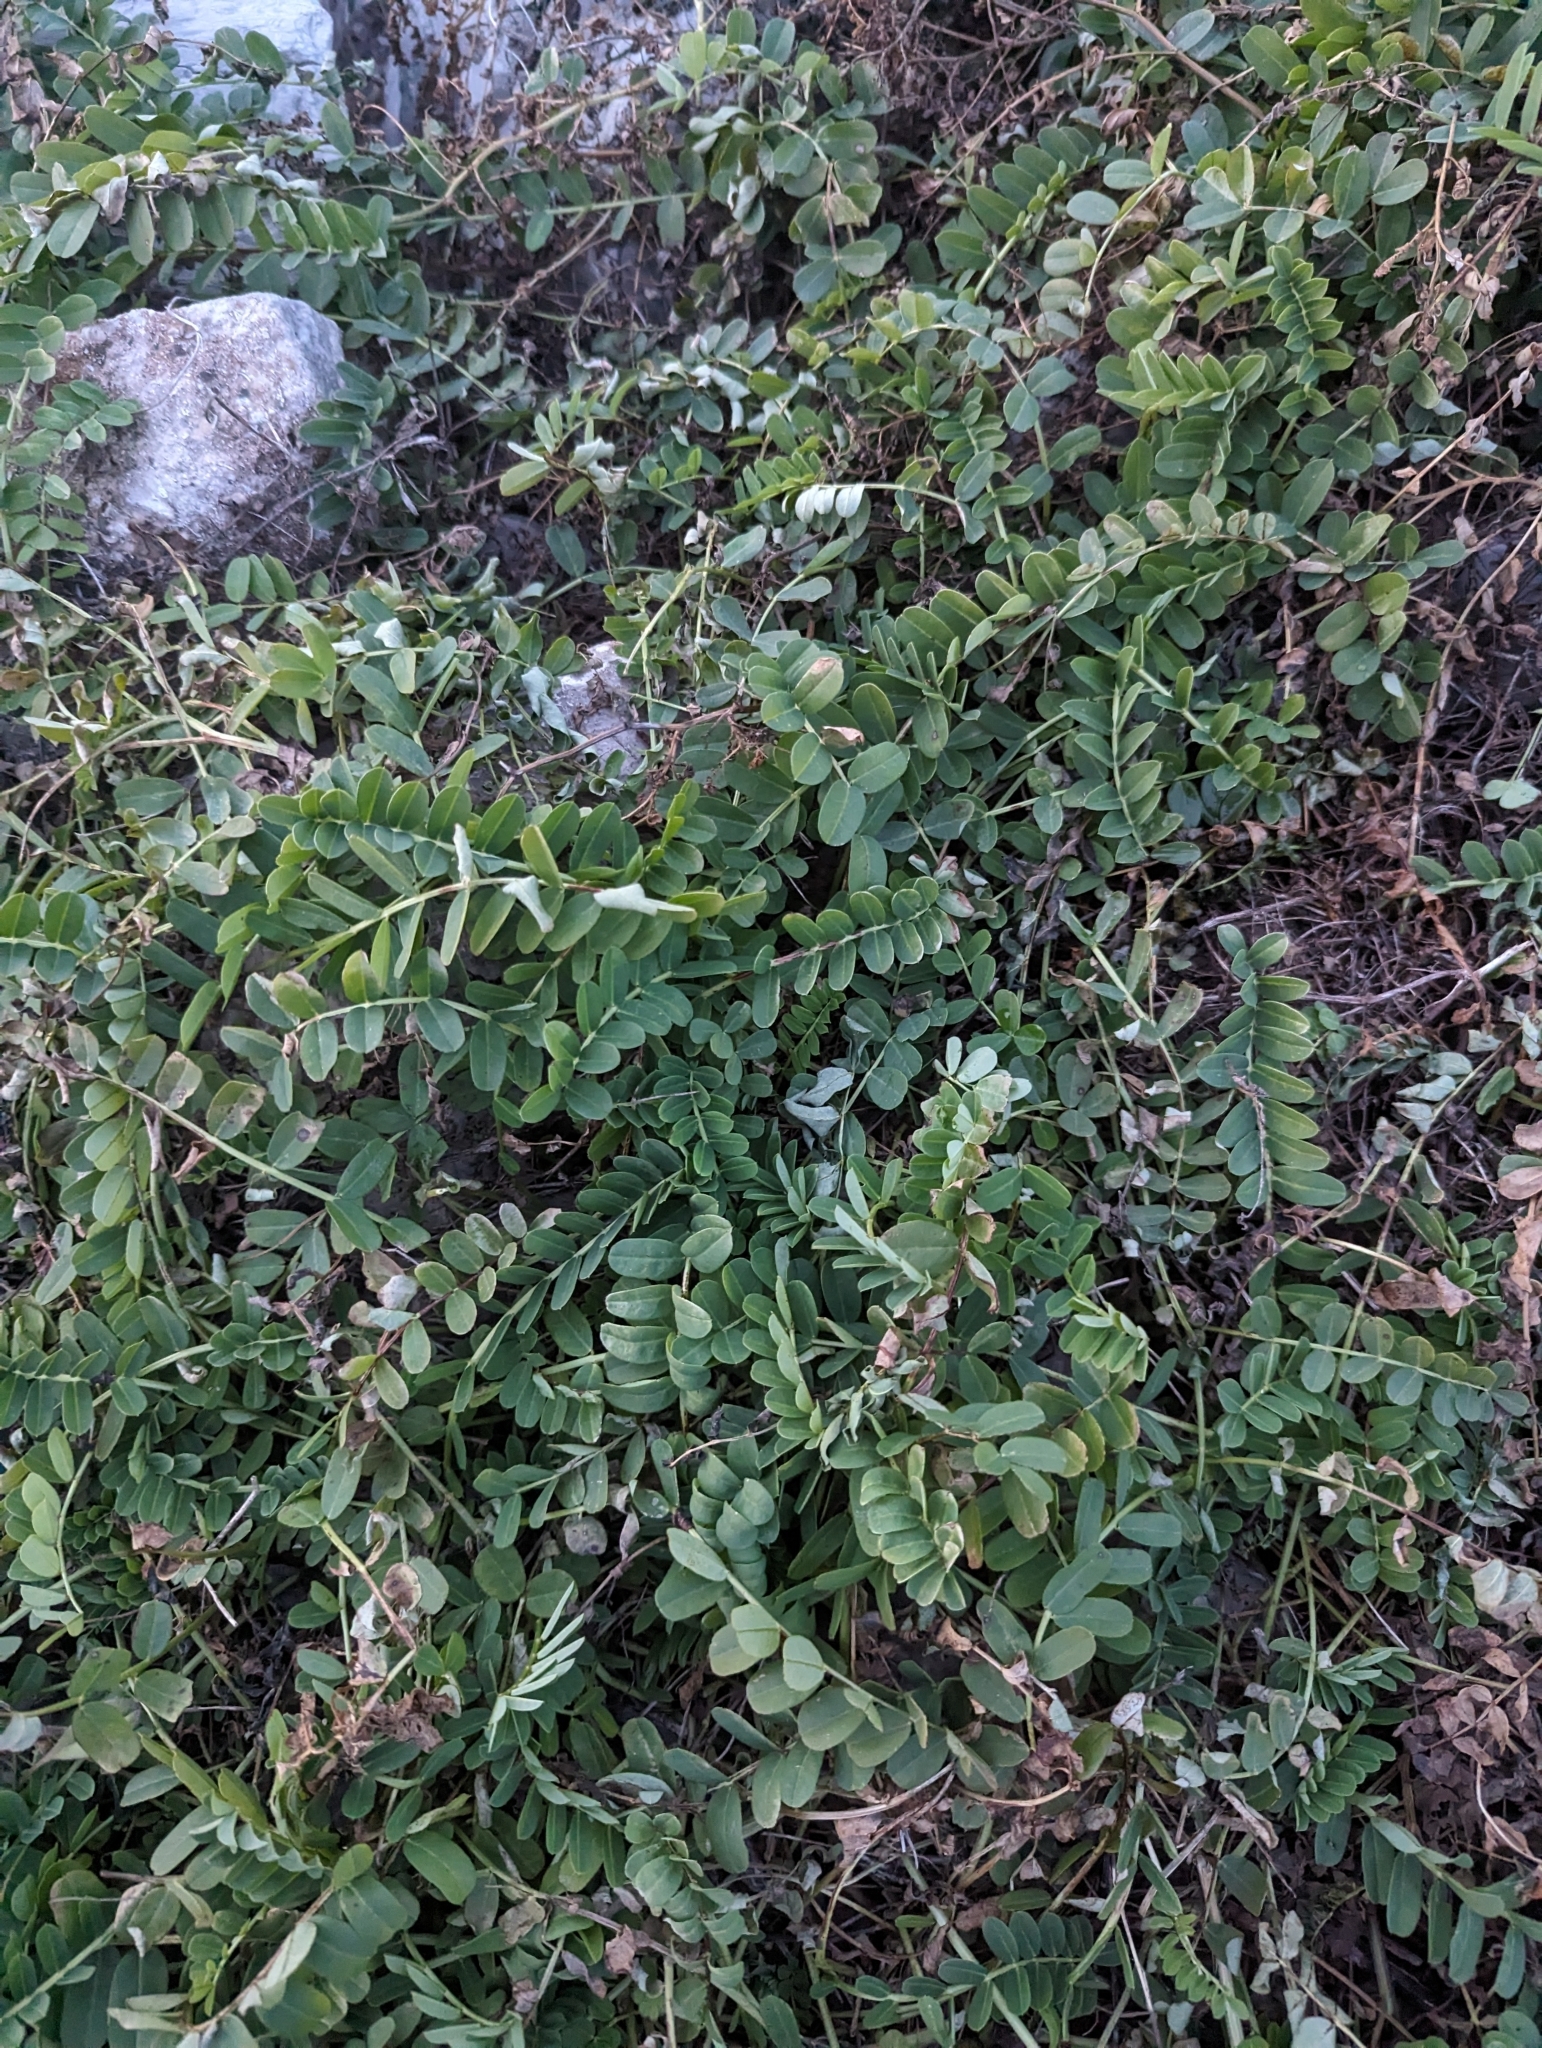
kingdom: Plantae
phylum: Tracheophyta
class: Magnoliopsida
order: Fabales
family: Fabaceae
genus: Coronilla
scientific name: Coronilla varia
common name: Crownvetch
